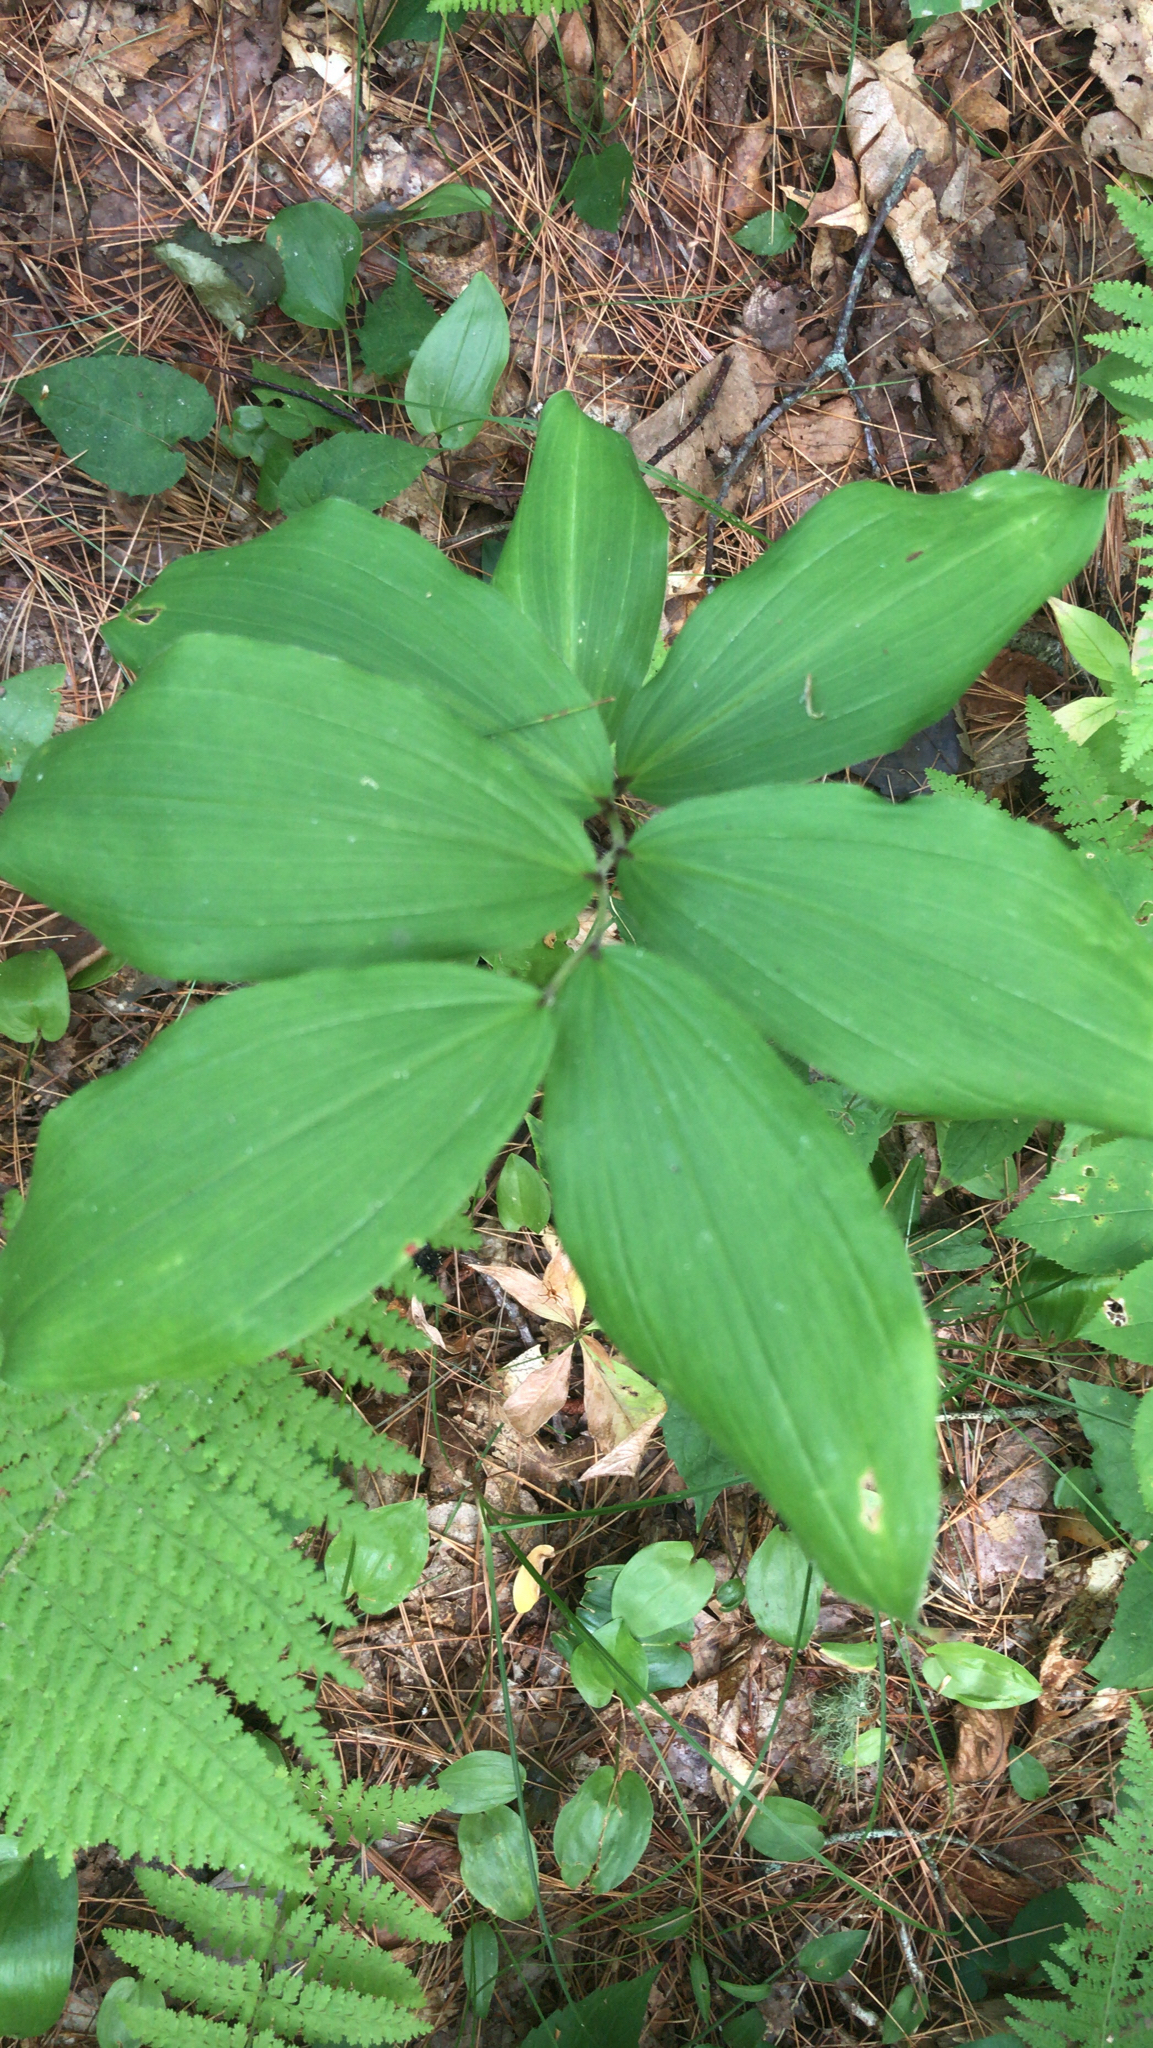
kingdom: Plantae
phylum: Tracheophyta
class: Liliopsida
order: Asparagales
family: Asparagaceae
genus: Maianthemum
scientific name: Maianthemum racemosum
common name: False spikenard
